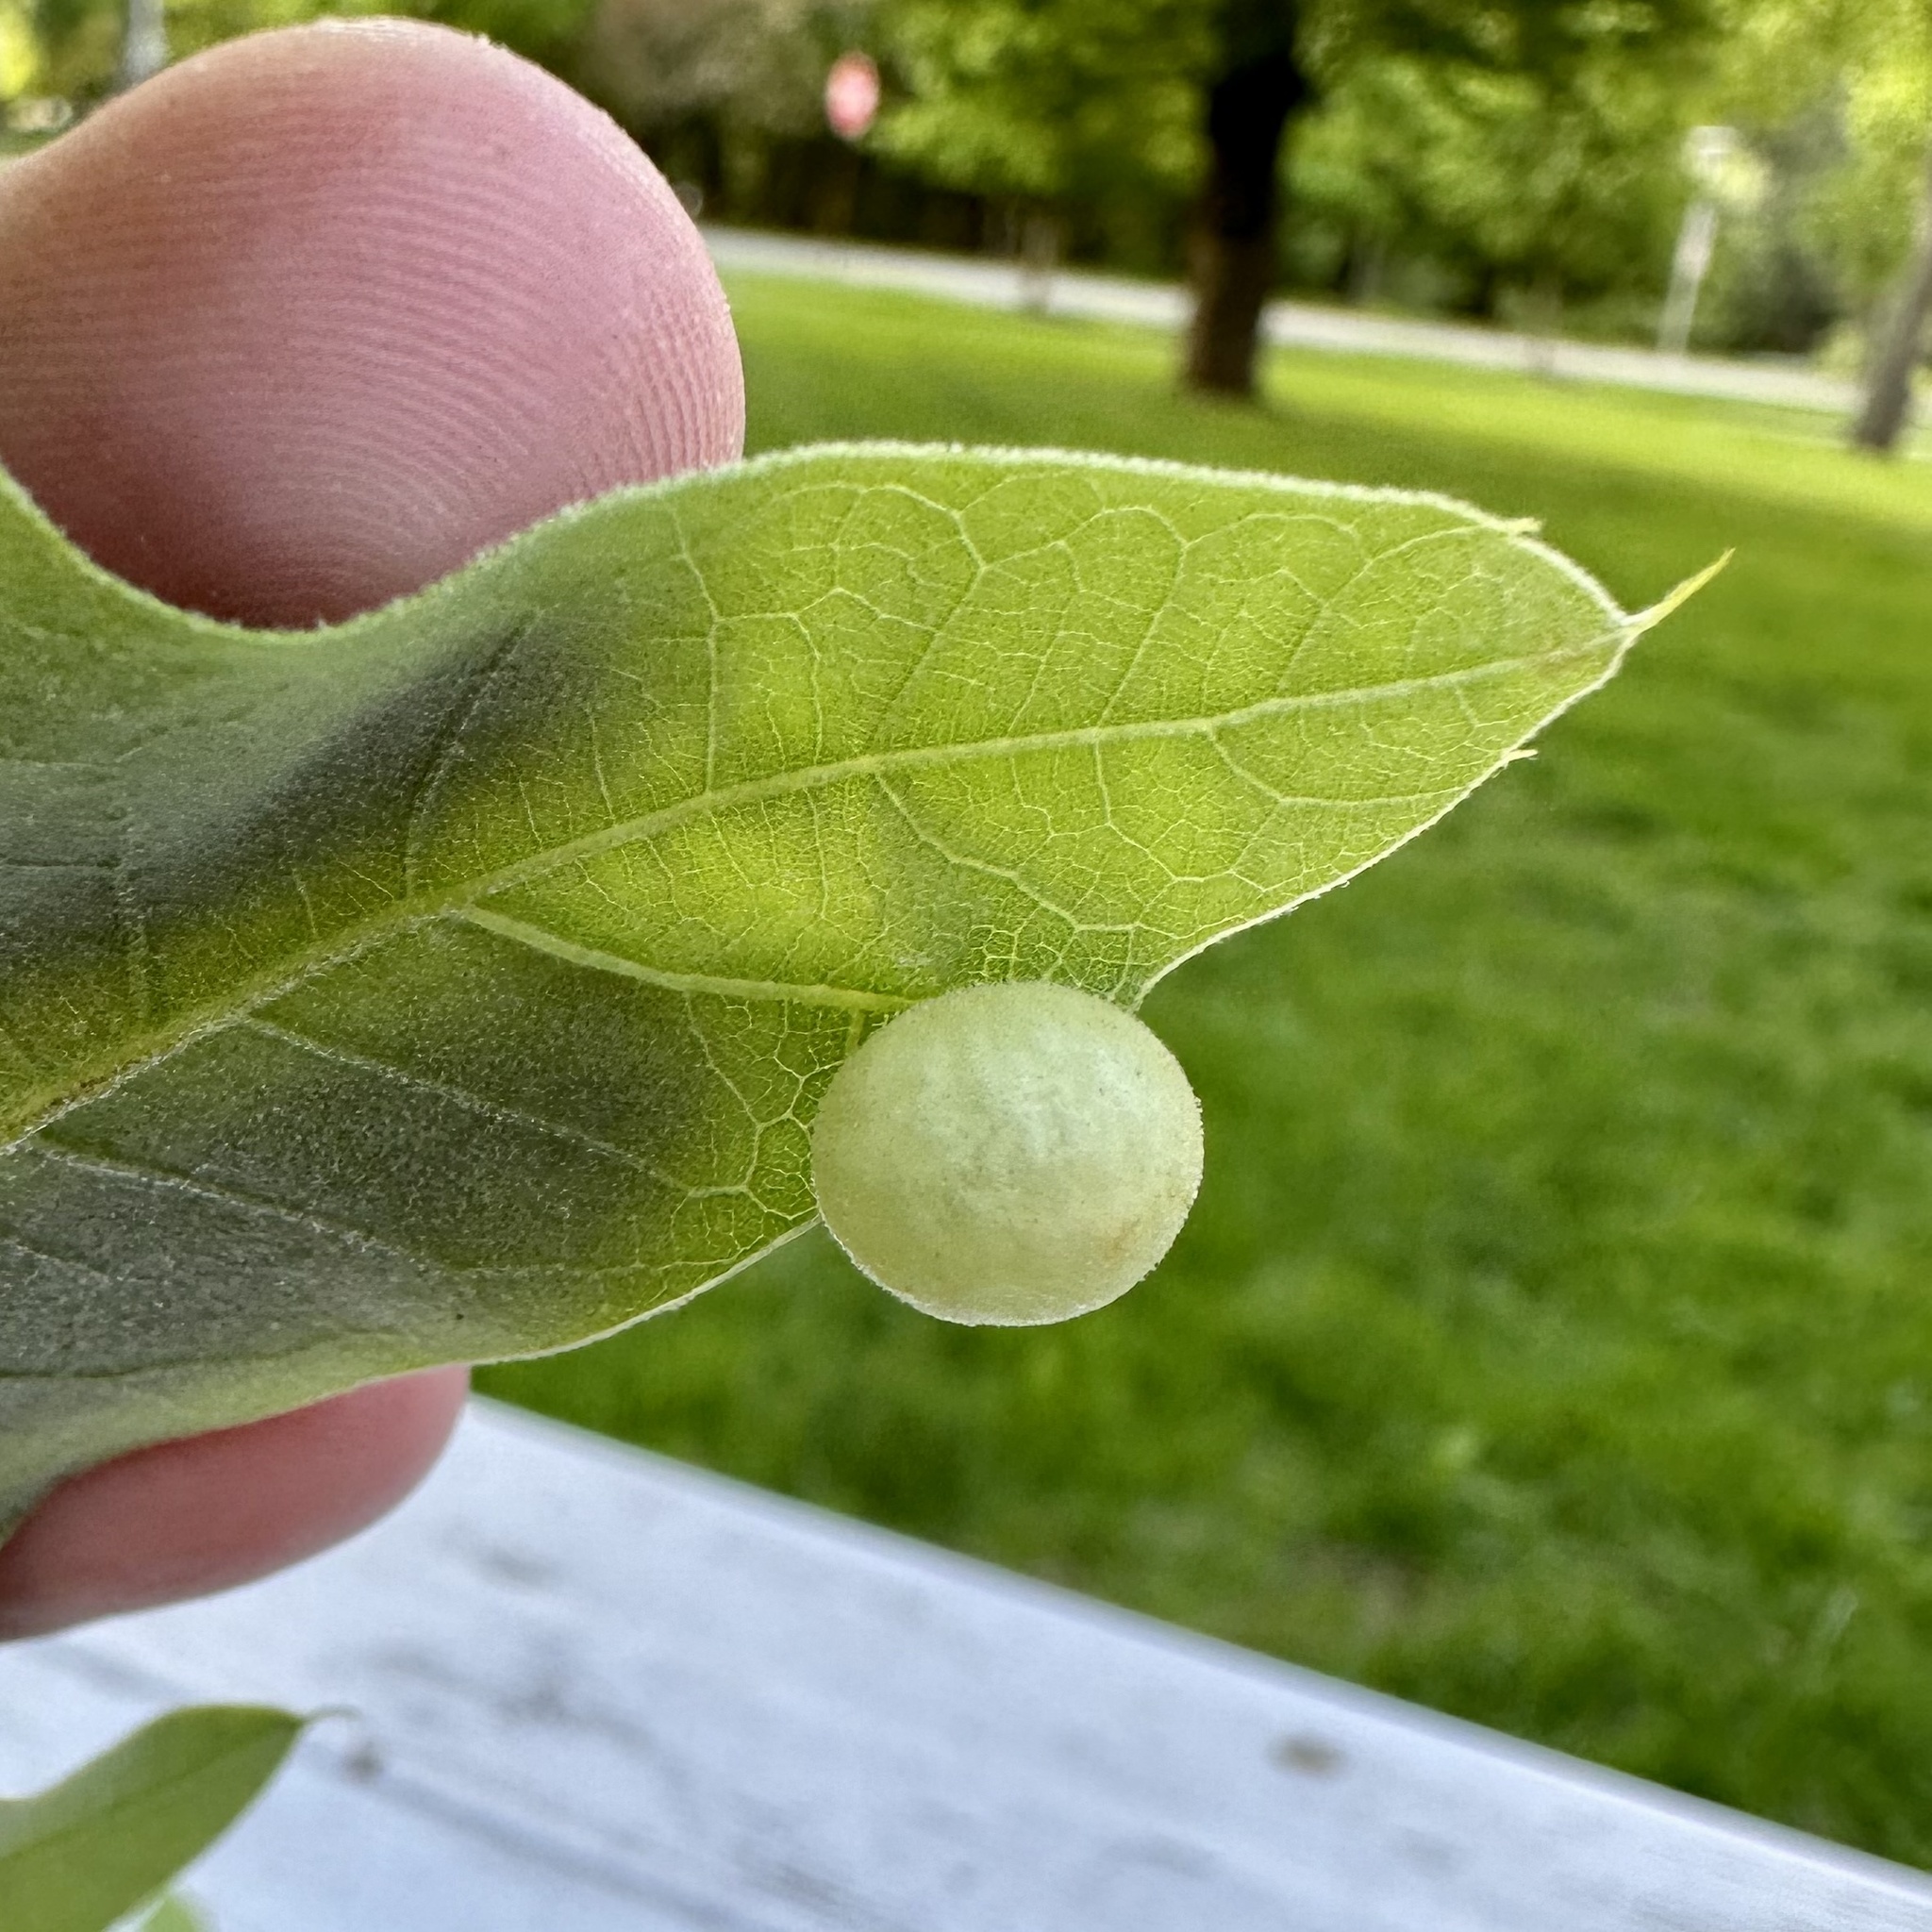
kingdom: Animalia
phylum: Arthropoda
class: Insecta
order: Hymenoptera
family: Cynipidae
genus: Amphibolips
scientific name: Amphibolips
